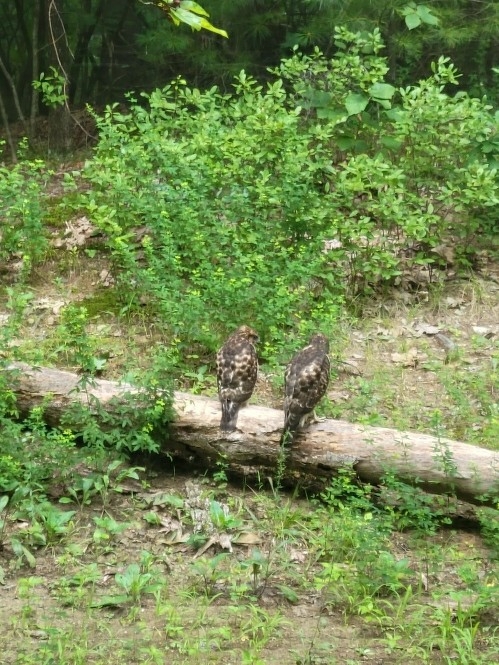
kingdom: Animalia
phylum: Chordata
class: Aves
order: Accipitriformes
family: Accipitridae
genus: Buteo
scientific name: Buteo platypterus
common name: Broad-winged hawk
